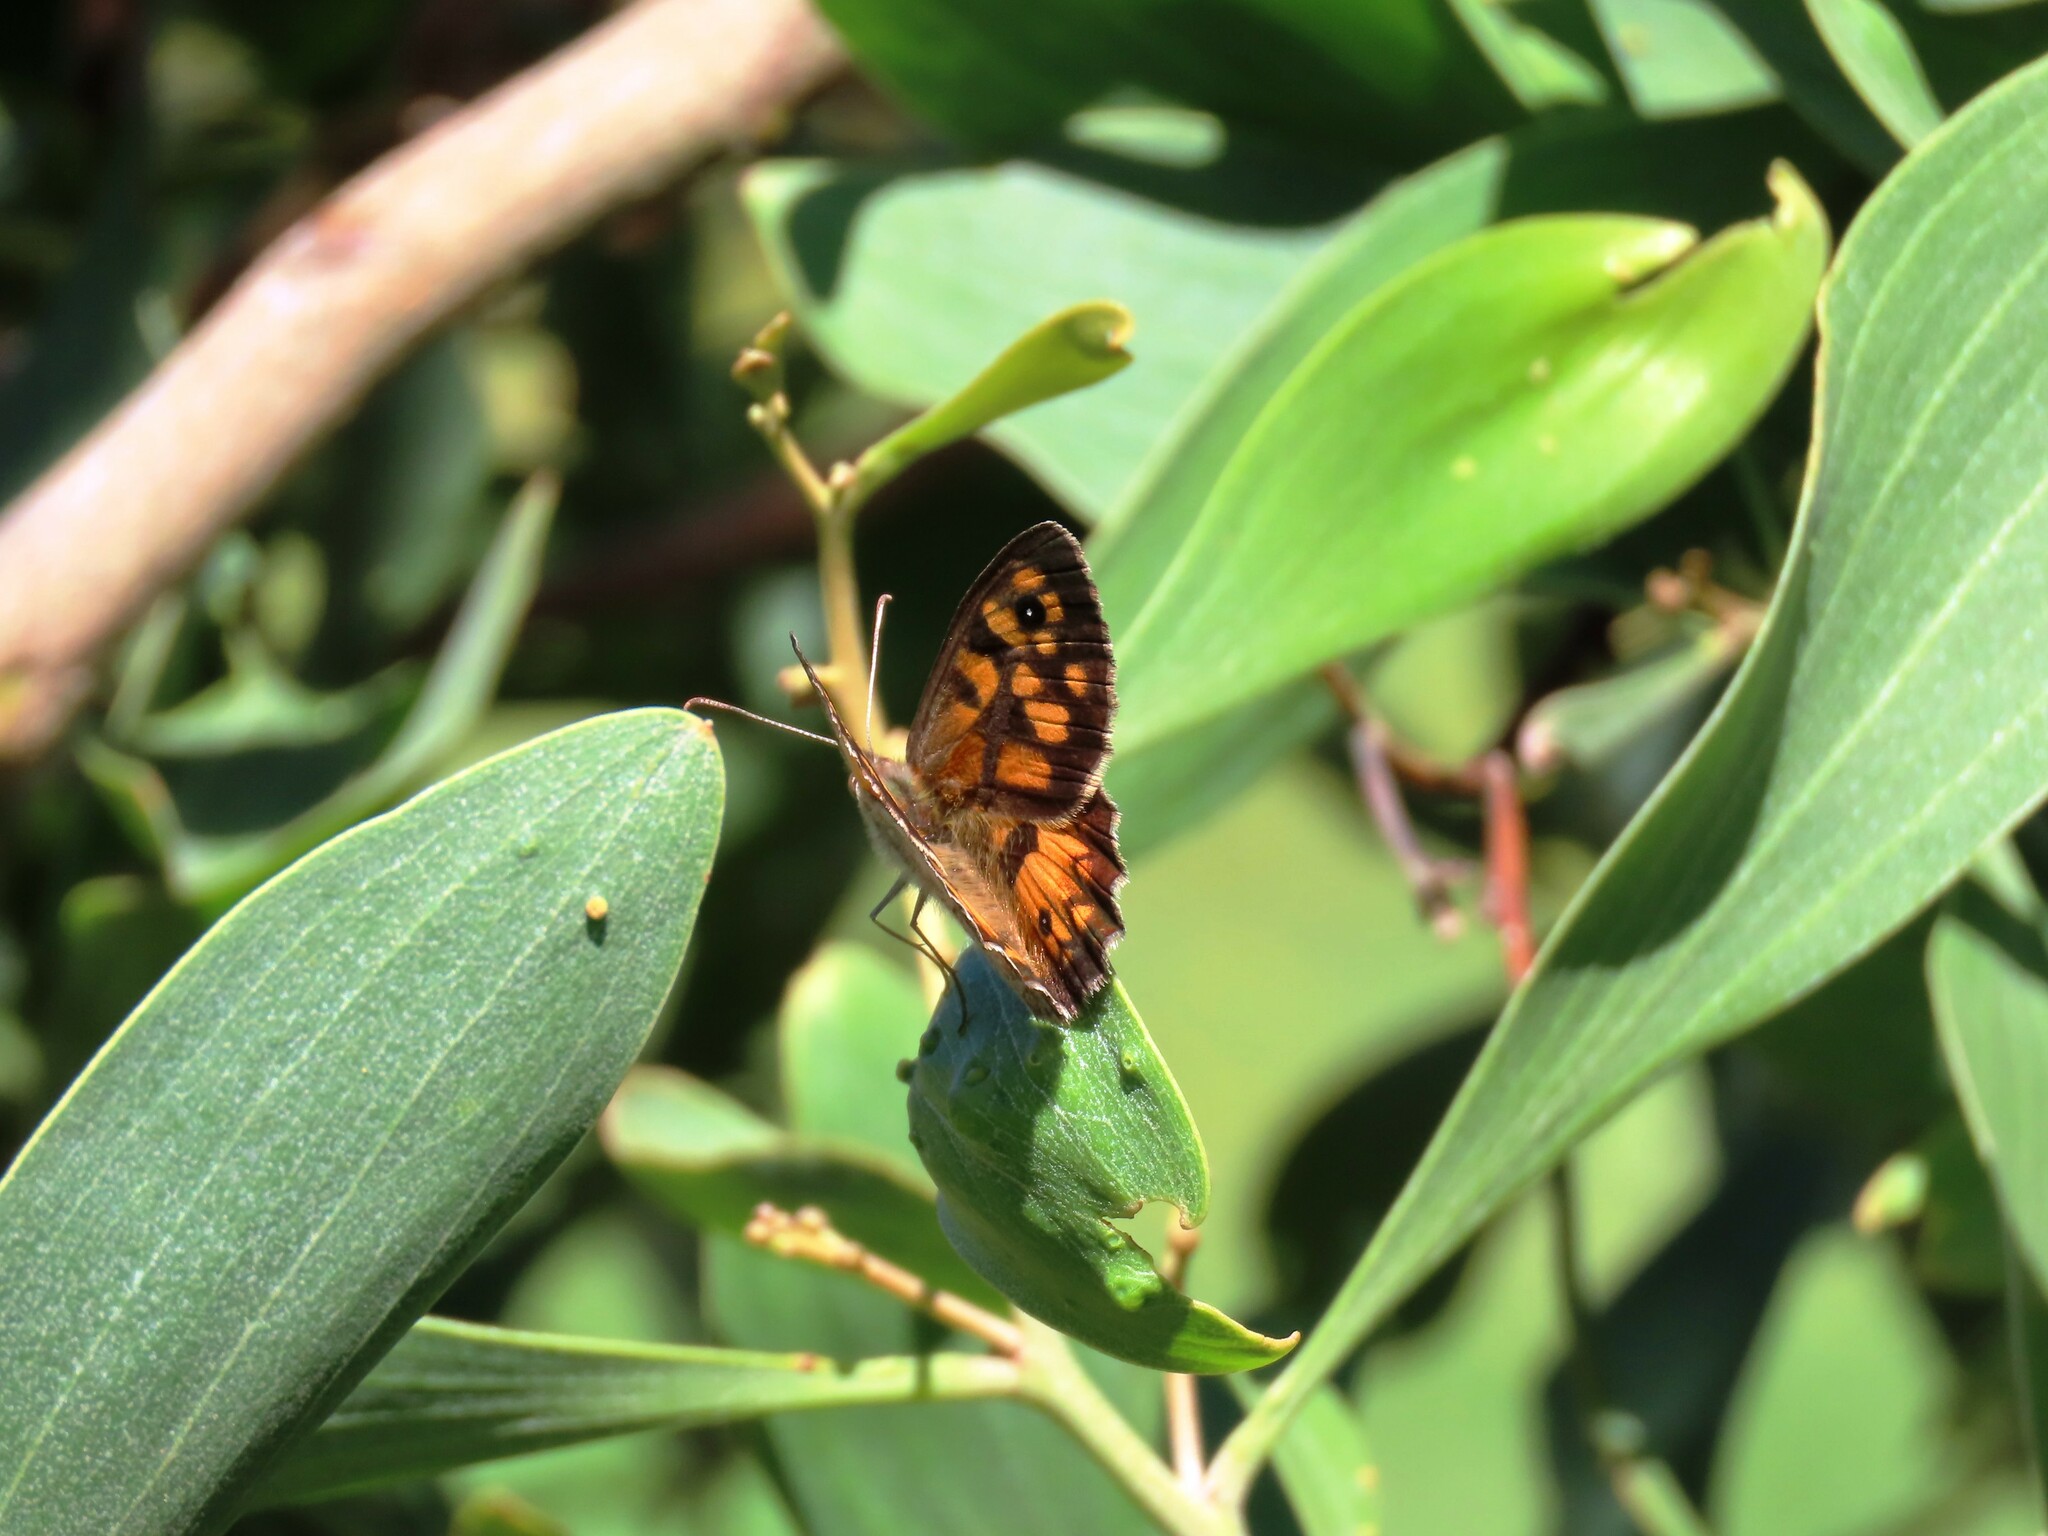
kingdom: Animalia
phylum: Arthropoda
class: Insecta
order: Lepidoptera
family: Nymphalidae
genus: Geitoneura
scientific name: Geitoneura klugii
